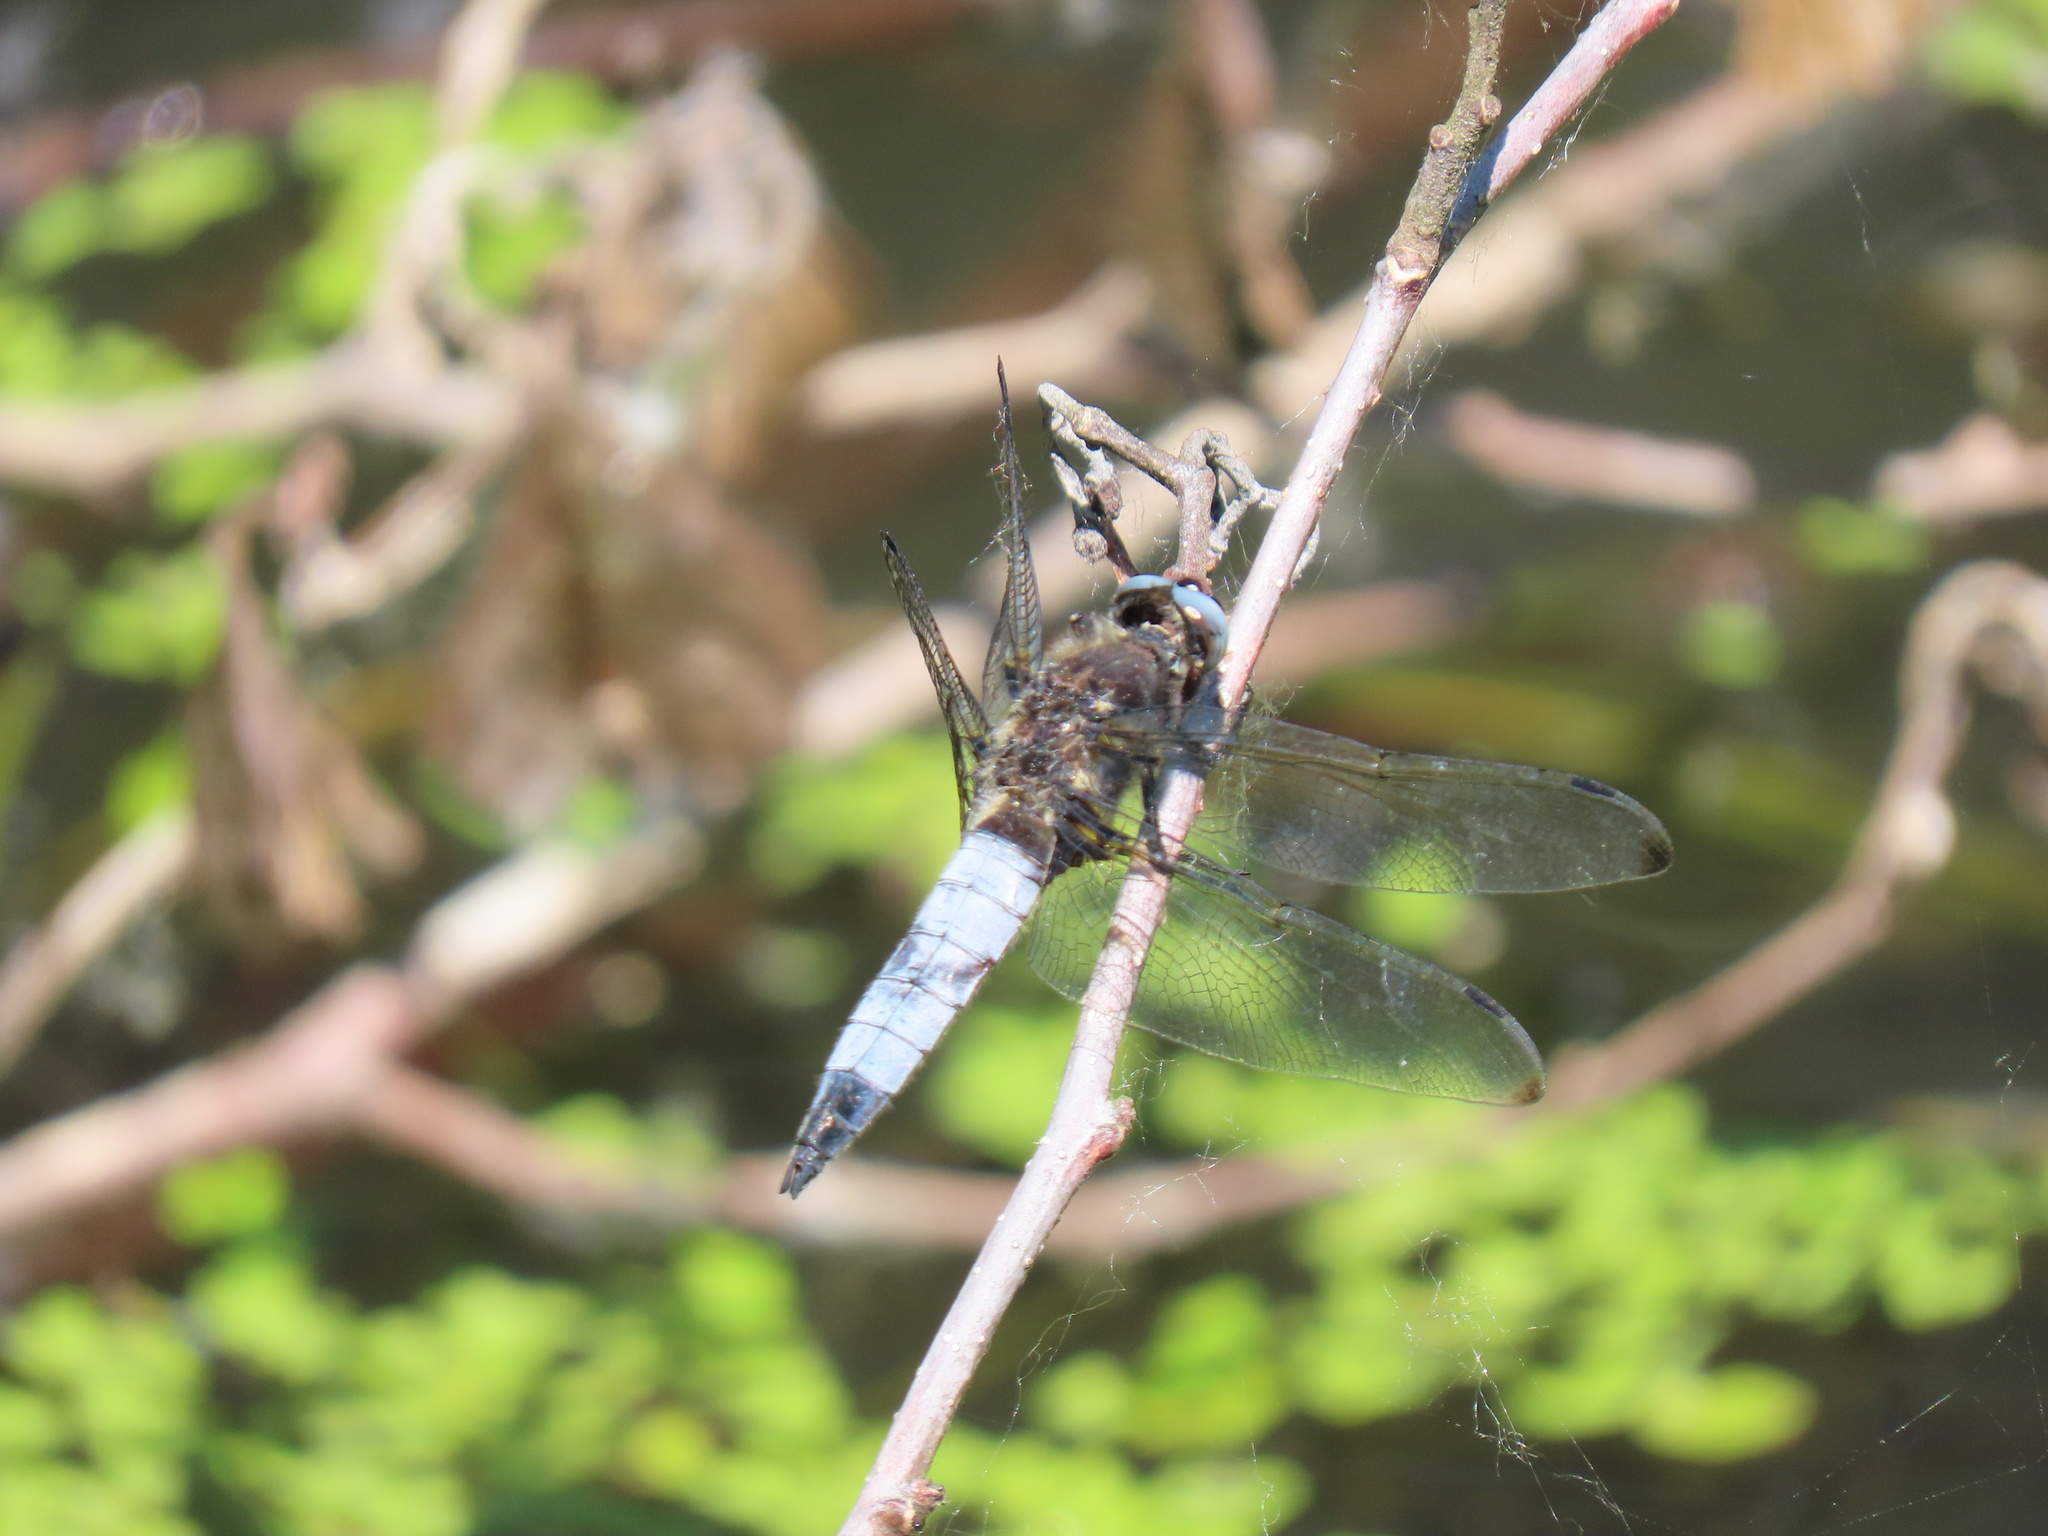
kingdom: Animalia
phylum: Arthropoda
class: Insecta
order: Odonata
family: Libellulidae
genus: Libellula
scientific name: Libellula fulva
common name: Blue chaser
